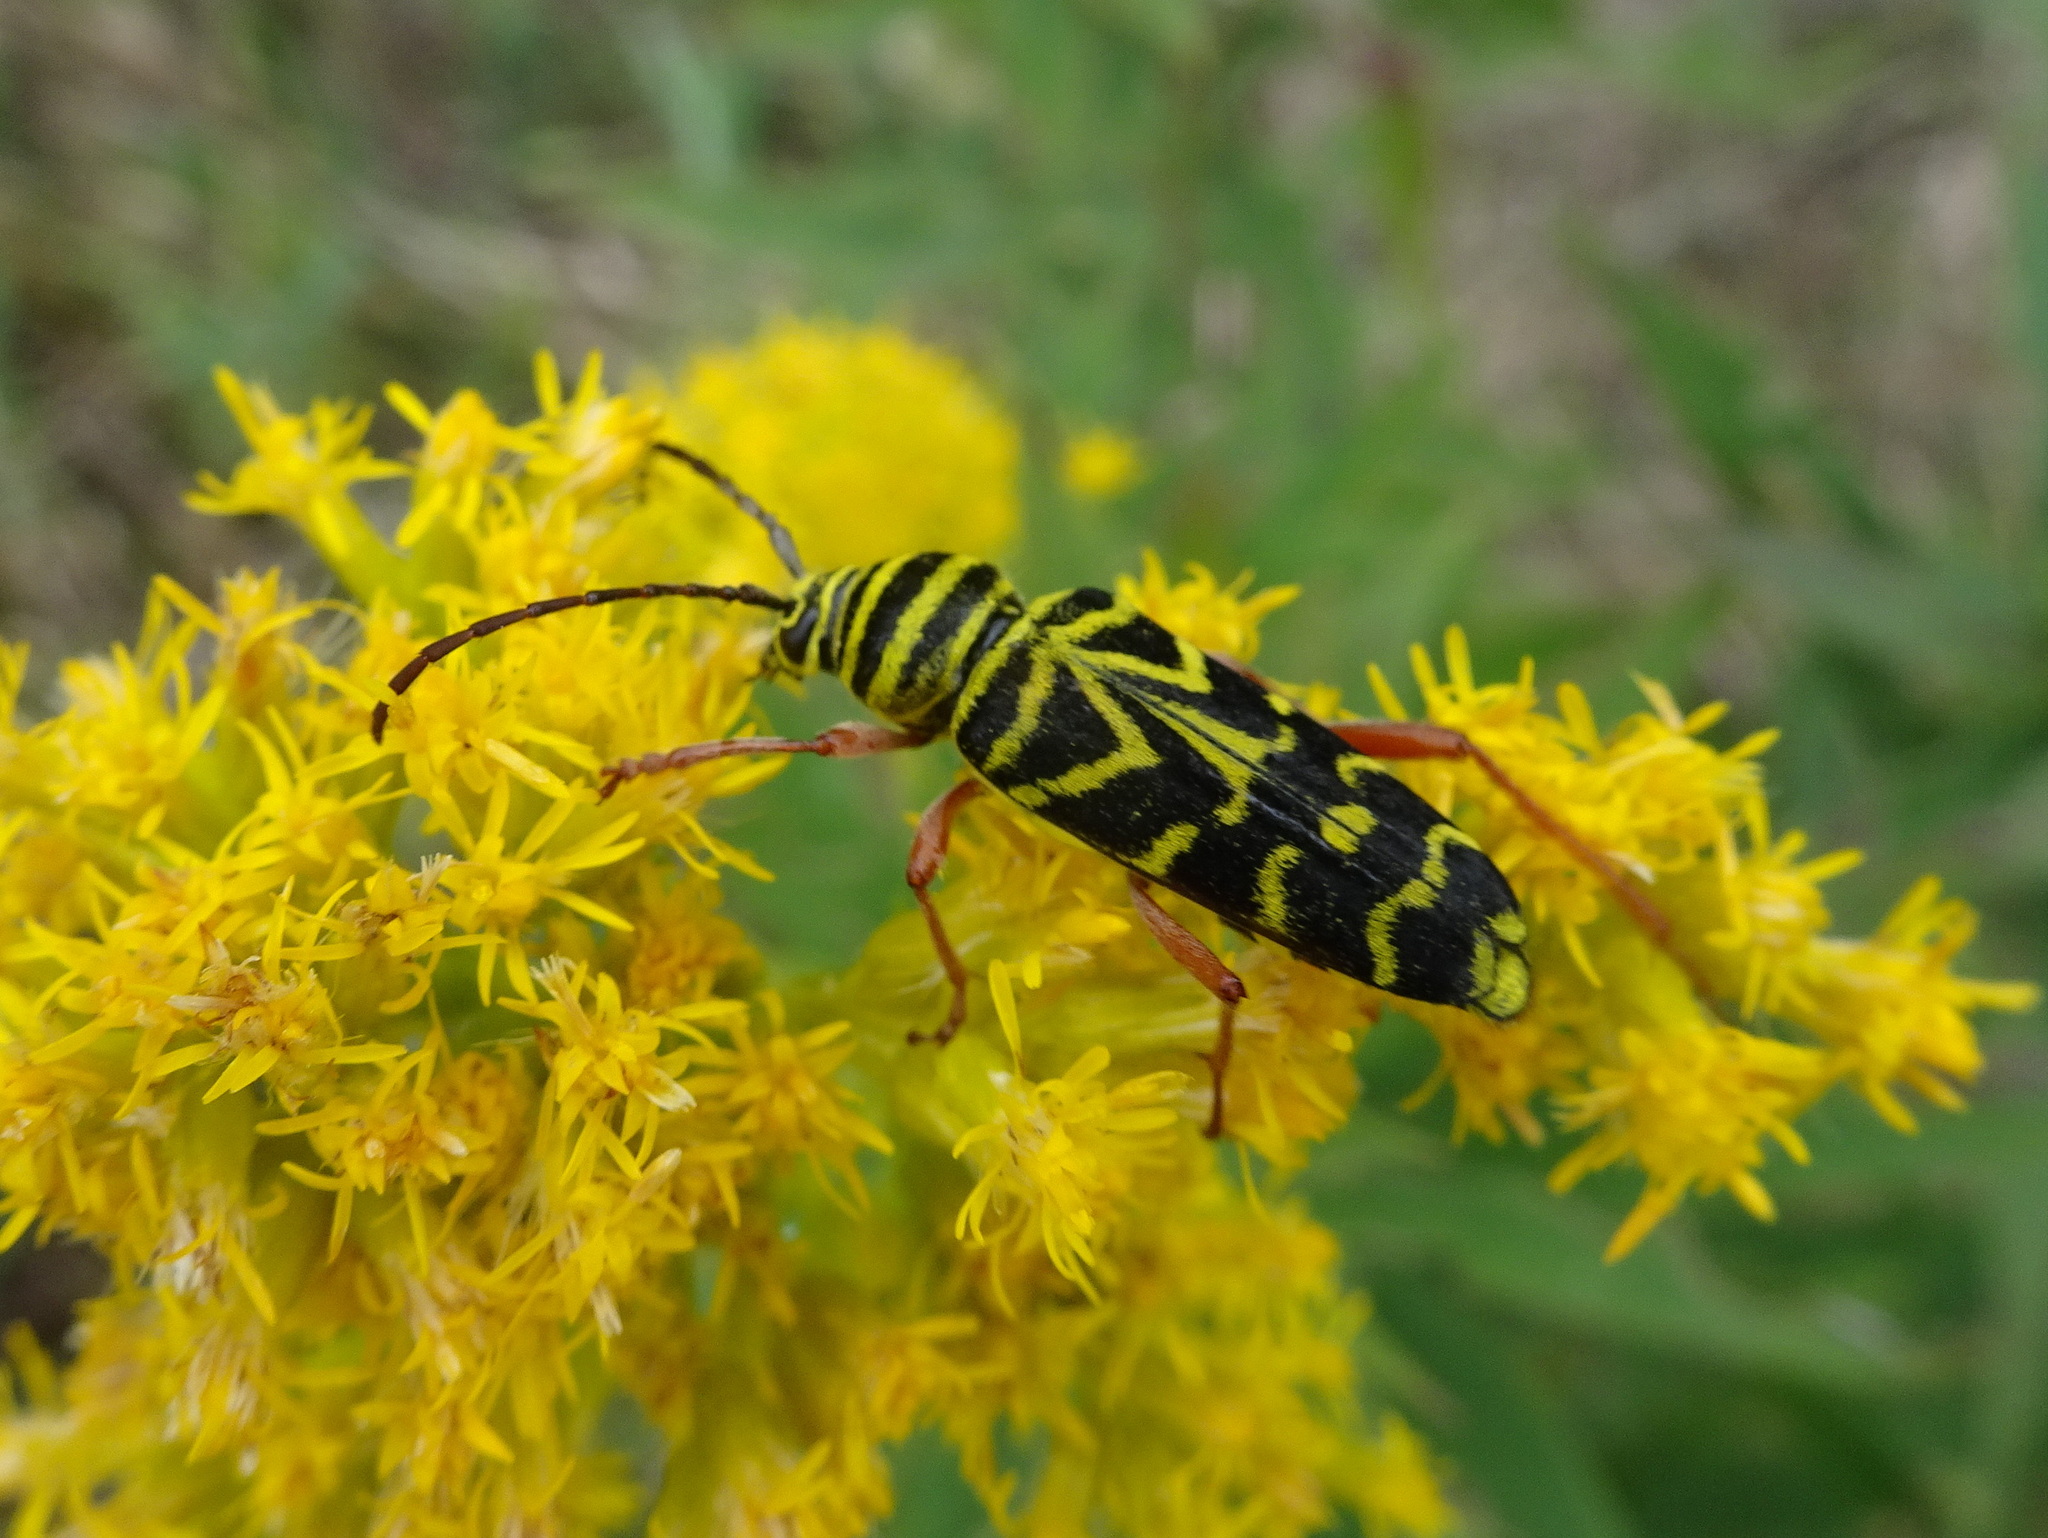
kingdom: Animalia
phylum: Arthropoda
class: Insecta
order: Coleoptera
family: Cerambycidae
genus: Megacyllene
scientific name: Megacyllene robiniae
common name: Locust borer
